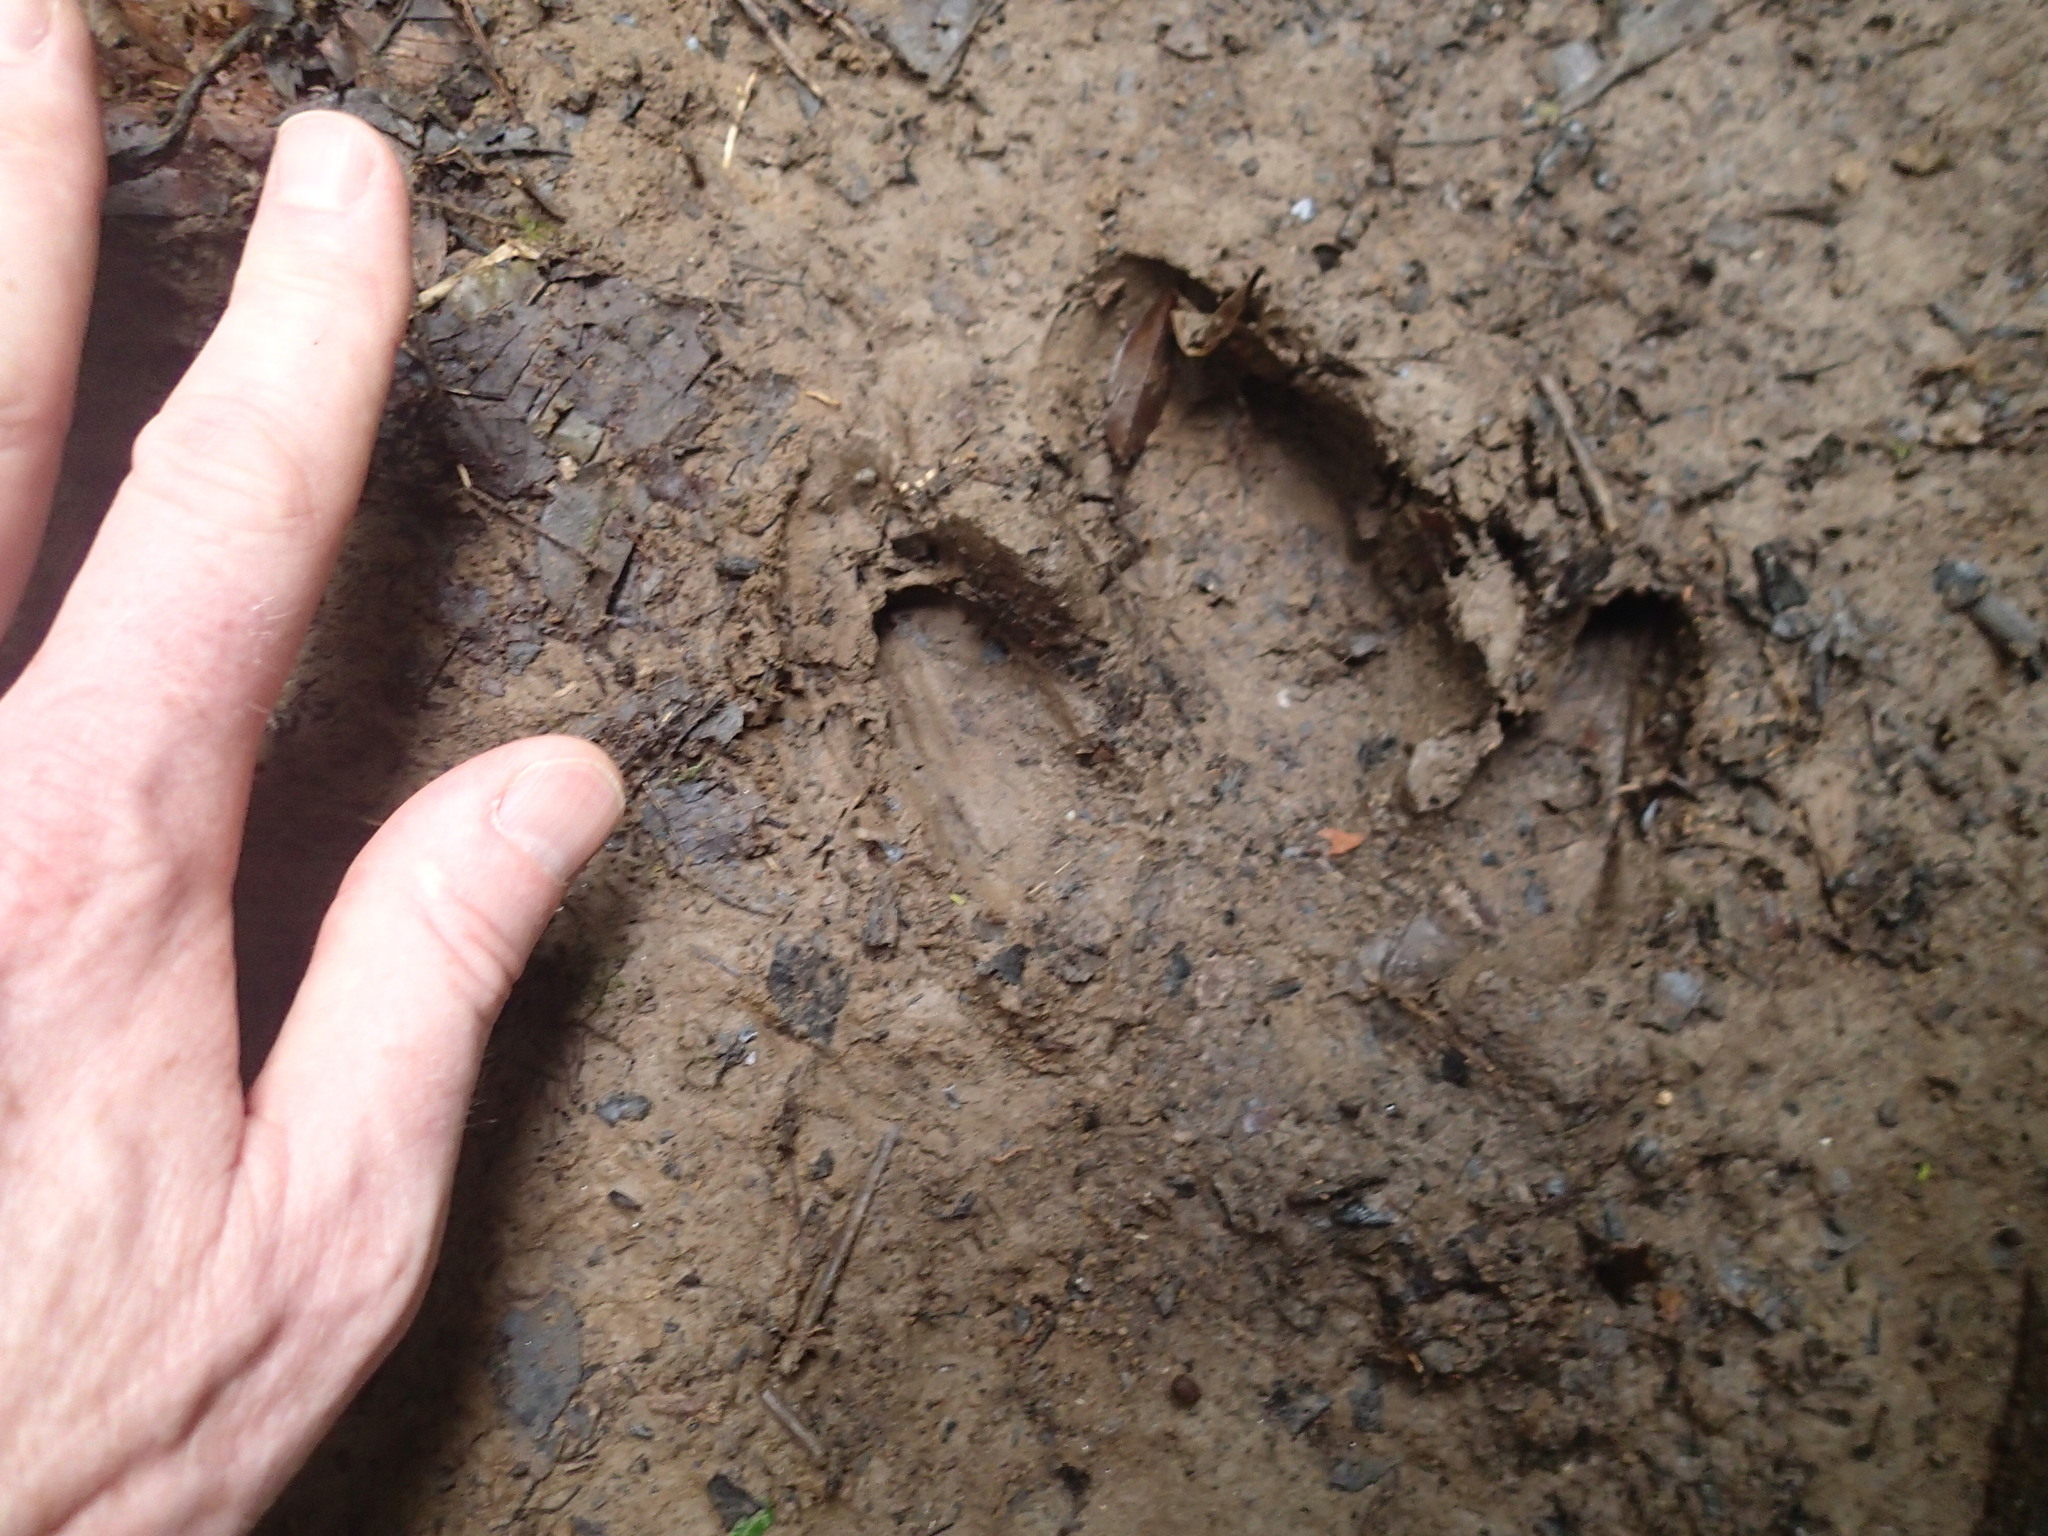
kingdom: Animalia
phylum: Chordata
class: Mammalia
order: Perissodactyla
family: Tapiridae
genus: Tapirus
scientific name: Tapirus terrestris
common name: Brazilian tapir
